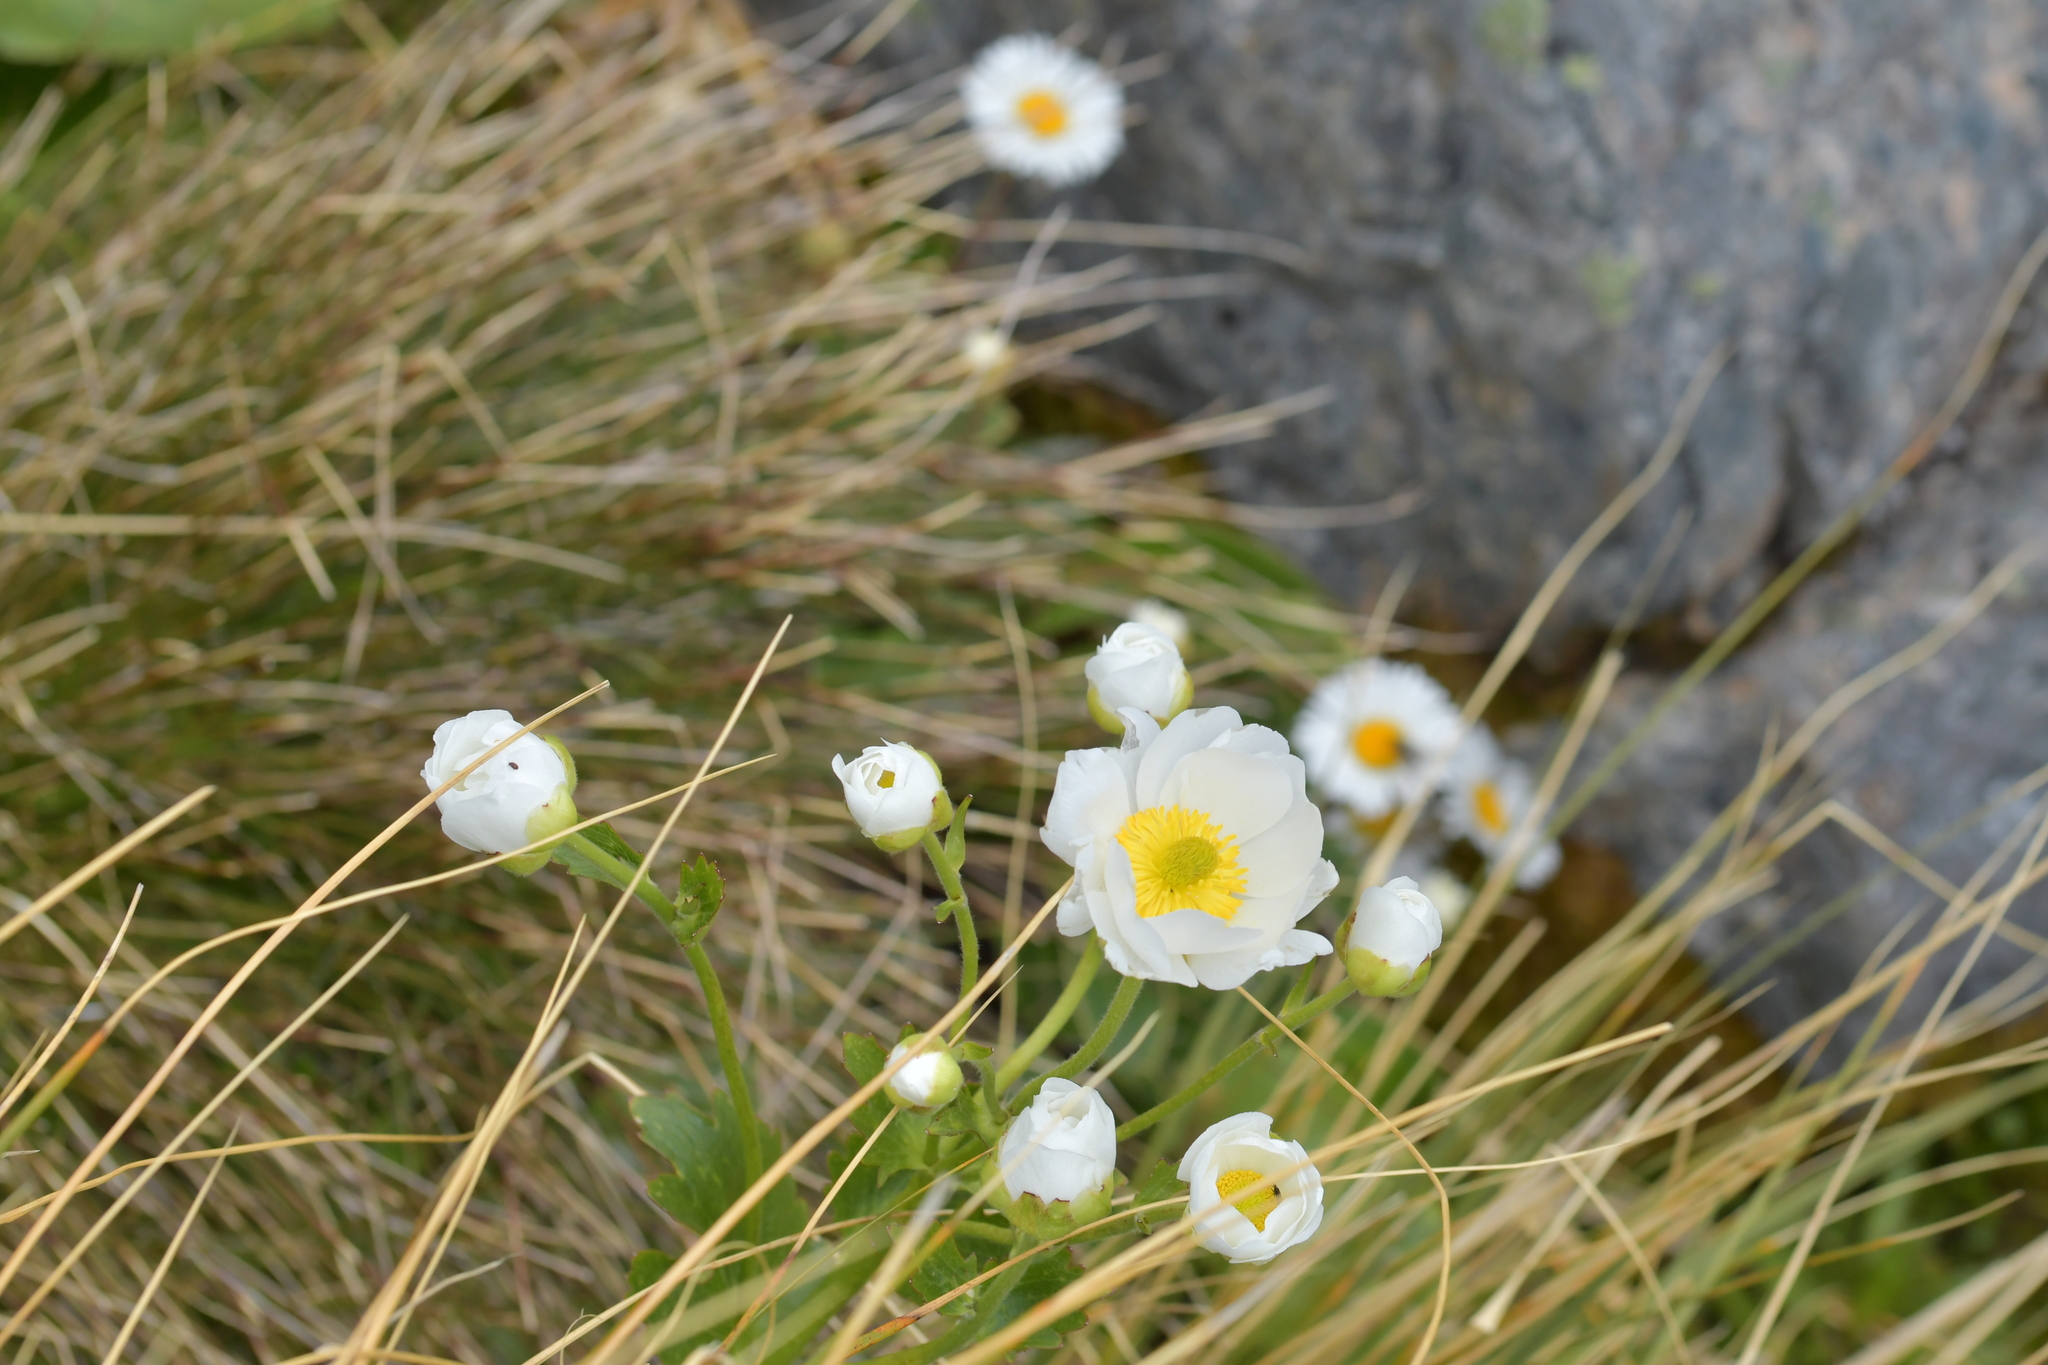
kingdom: Plantae
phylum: Tracheophyta
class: Magnoliopsida
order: Ranunculales
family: Ranunculaceae
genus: Ranunculus
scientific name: Ranunculus lyallii
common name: Mountain-lily
